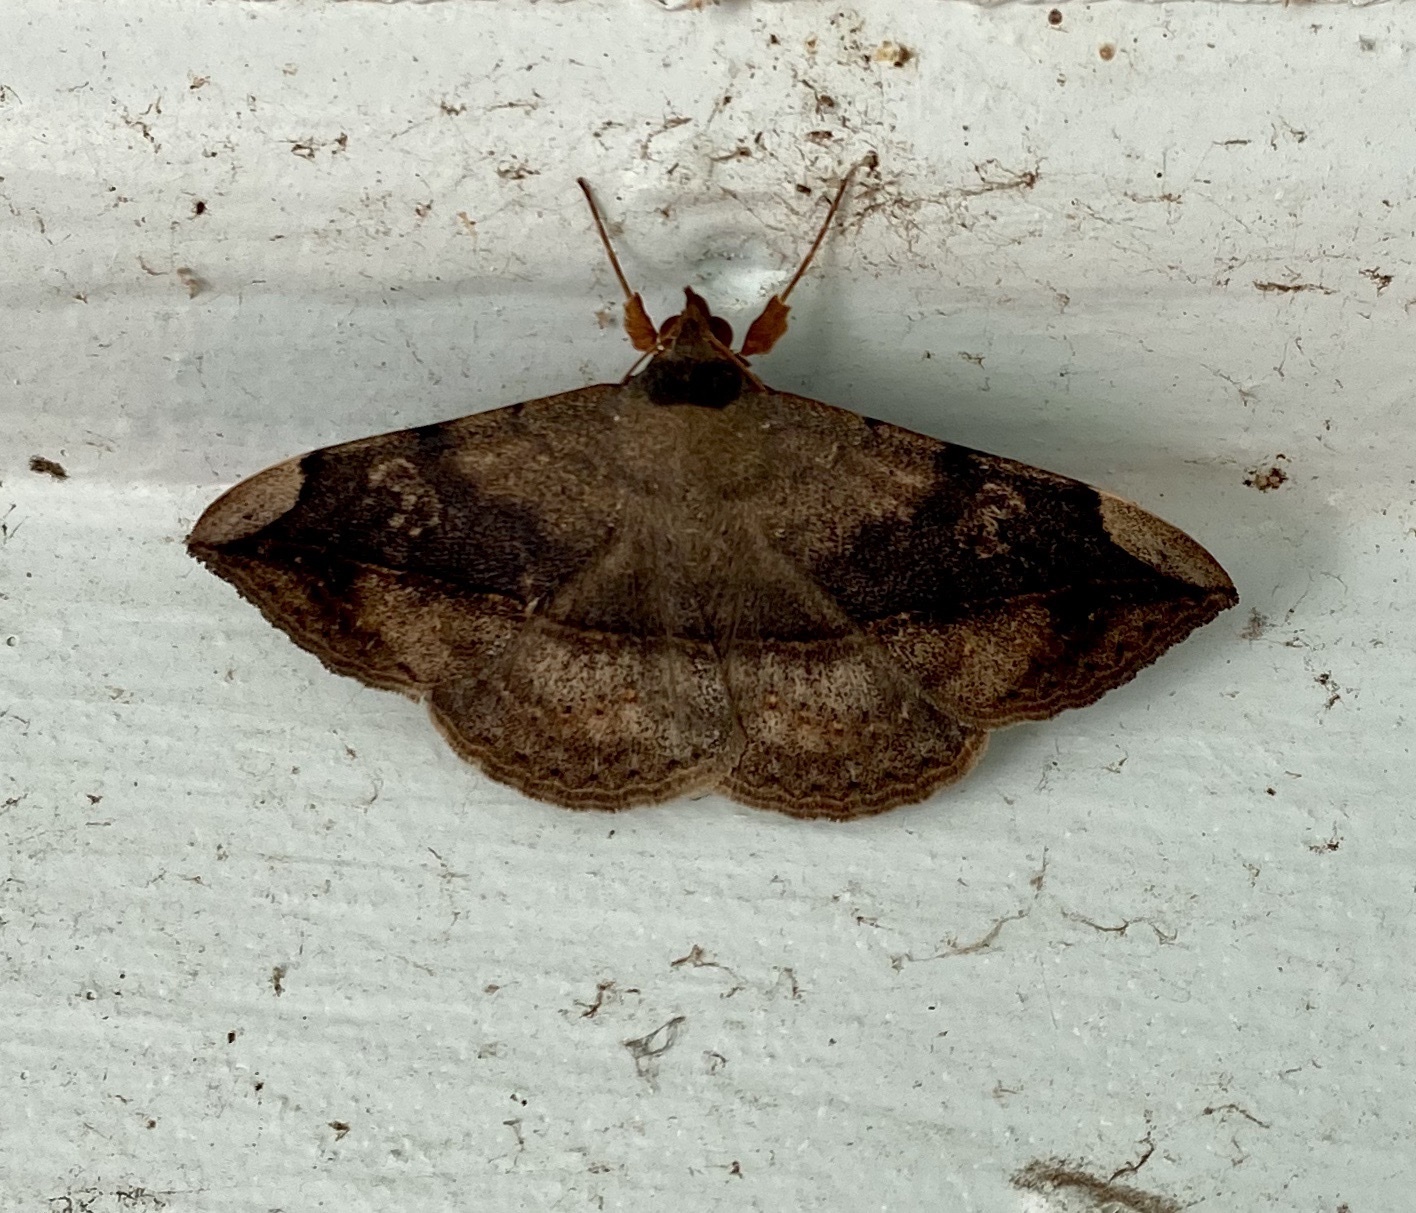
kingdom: Animalia
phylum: Arthropoda
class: Insecta
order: Lepidoptera
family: Erebidae
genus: Anticarsia
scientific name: Anticarsia gemmatalis
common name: Cutworm moth
